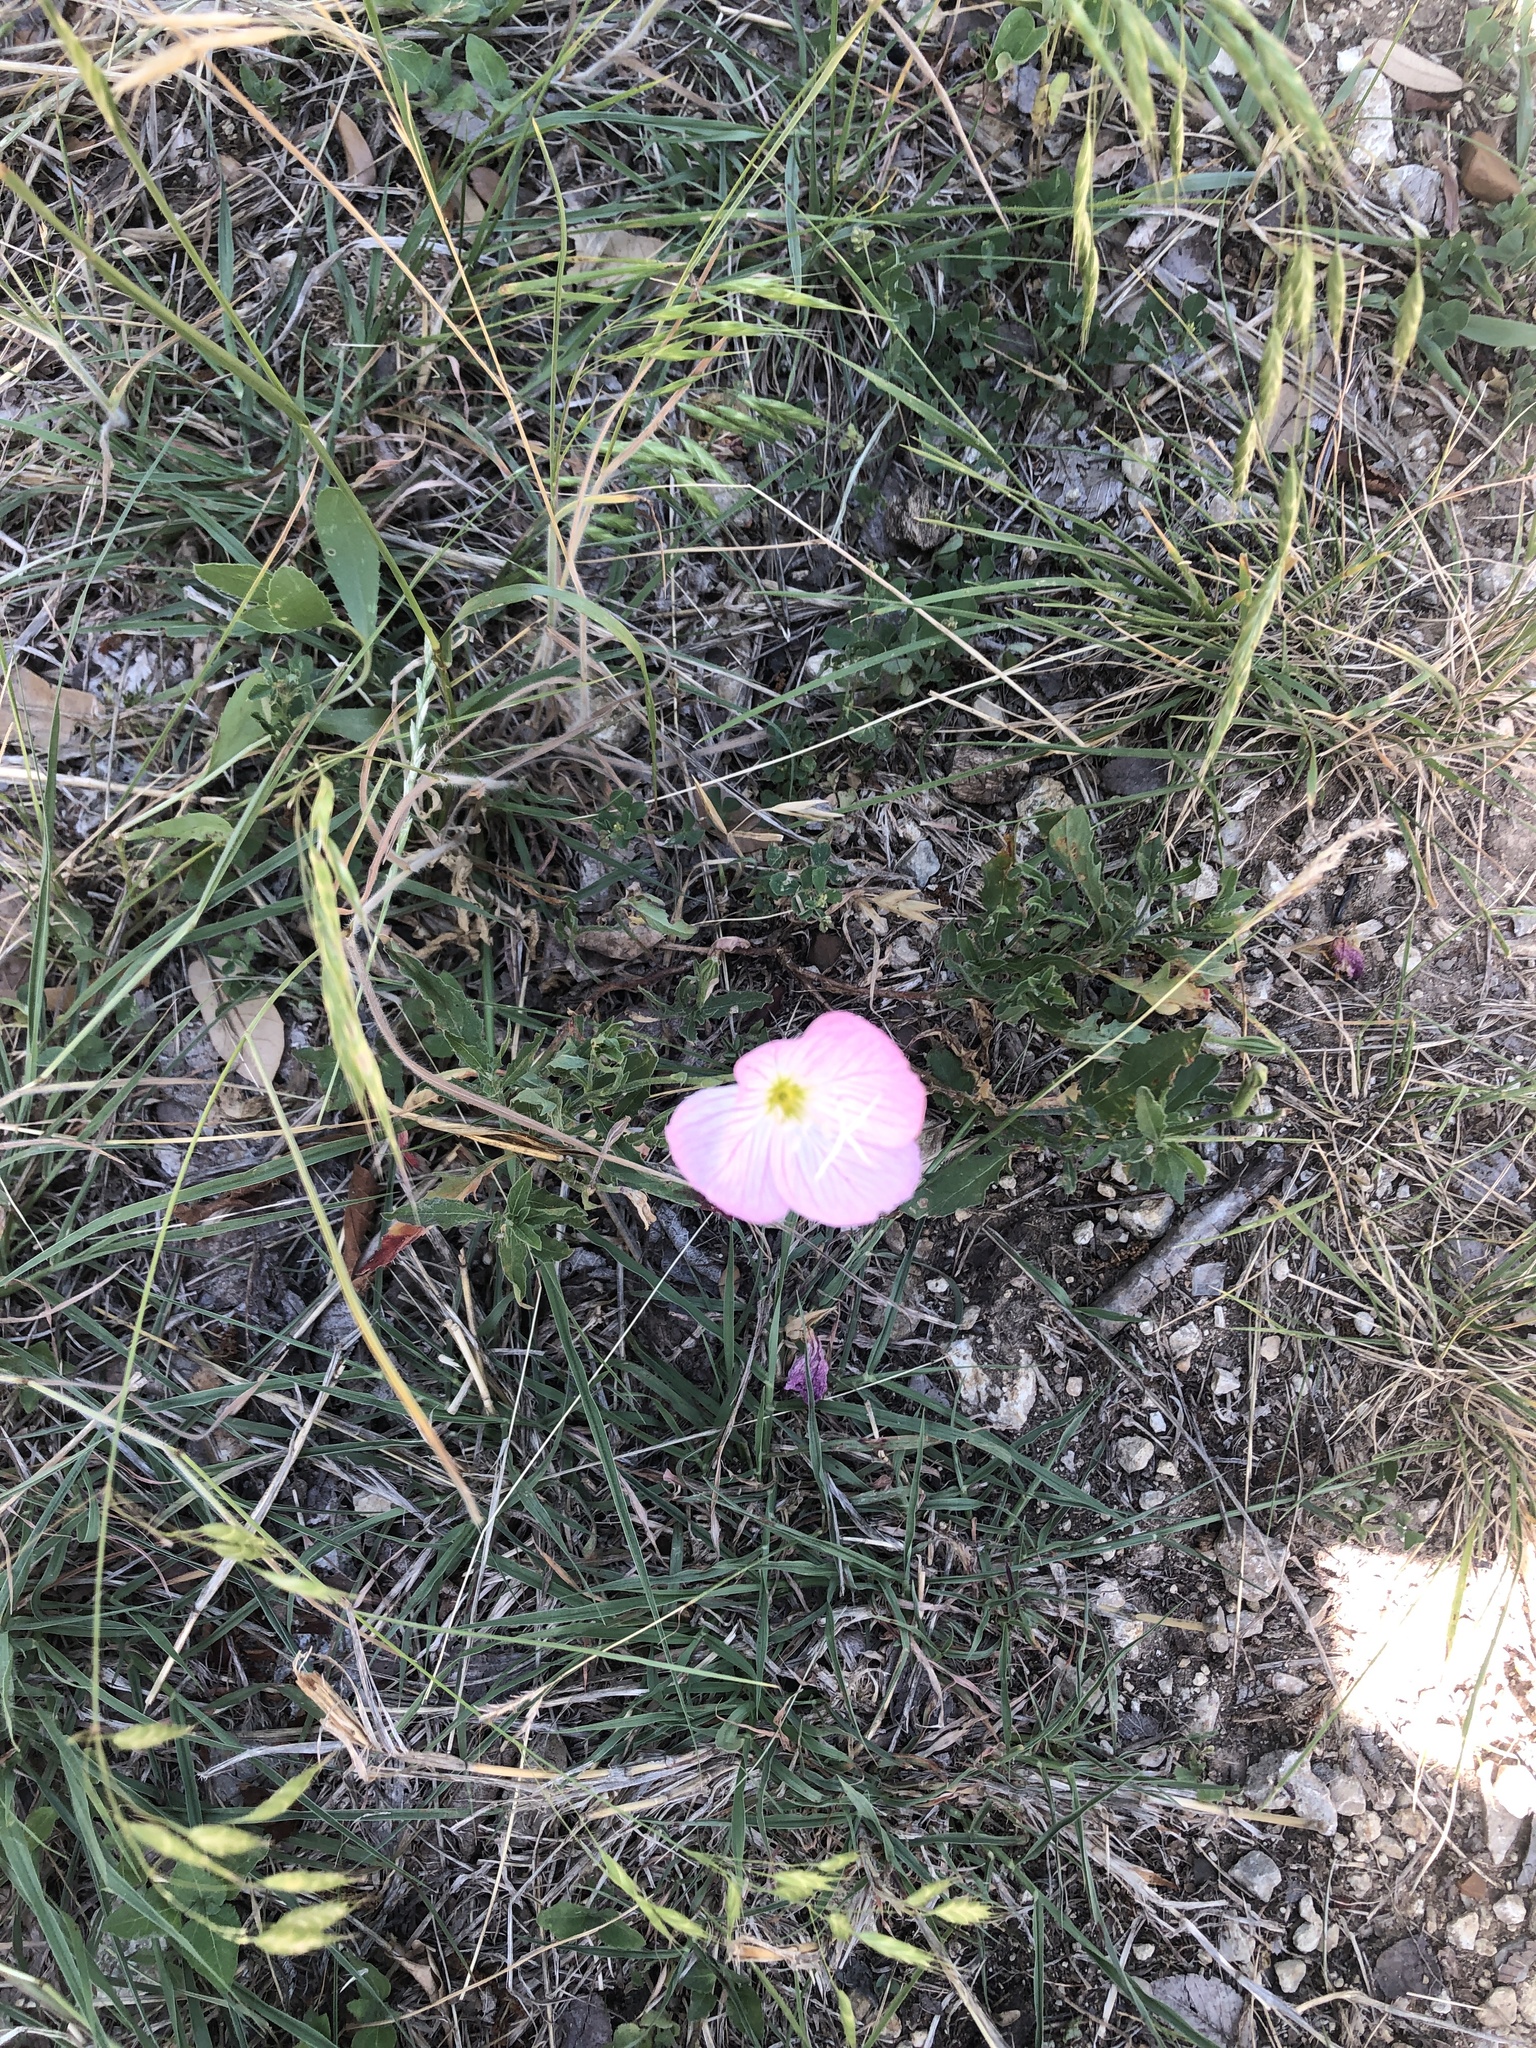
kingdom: Plantae
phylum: Tracheophyta
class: Magnoliopsida
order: Myrtales
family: Onagraceae
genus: Oenothera
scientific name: Oenothera speciosa
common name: White evening-primrose
